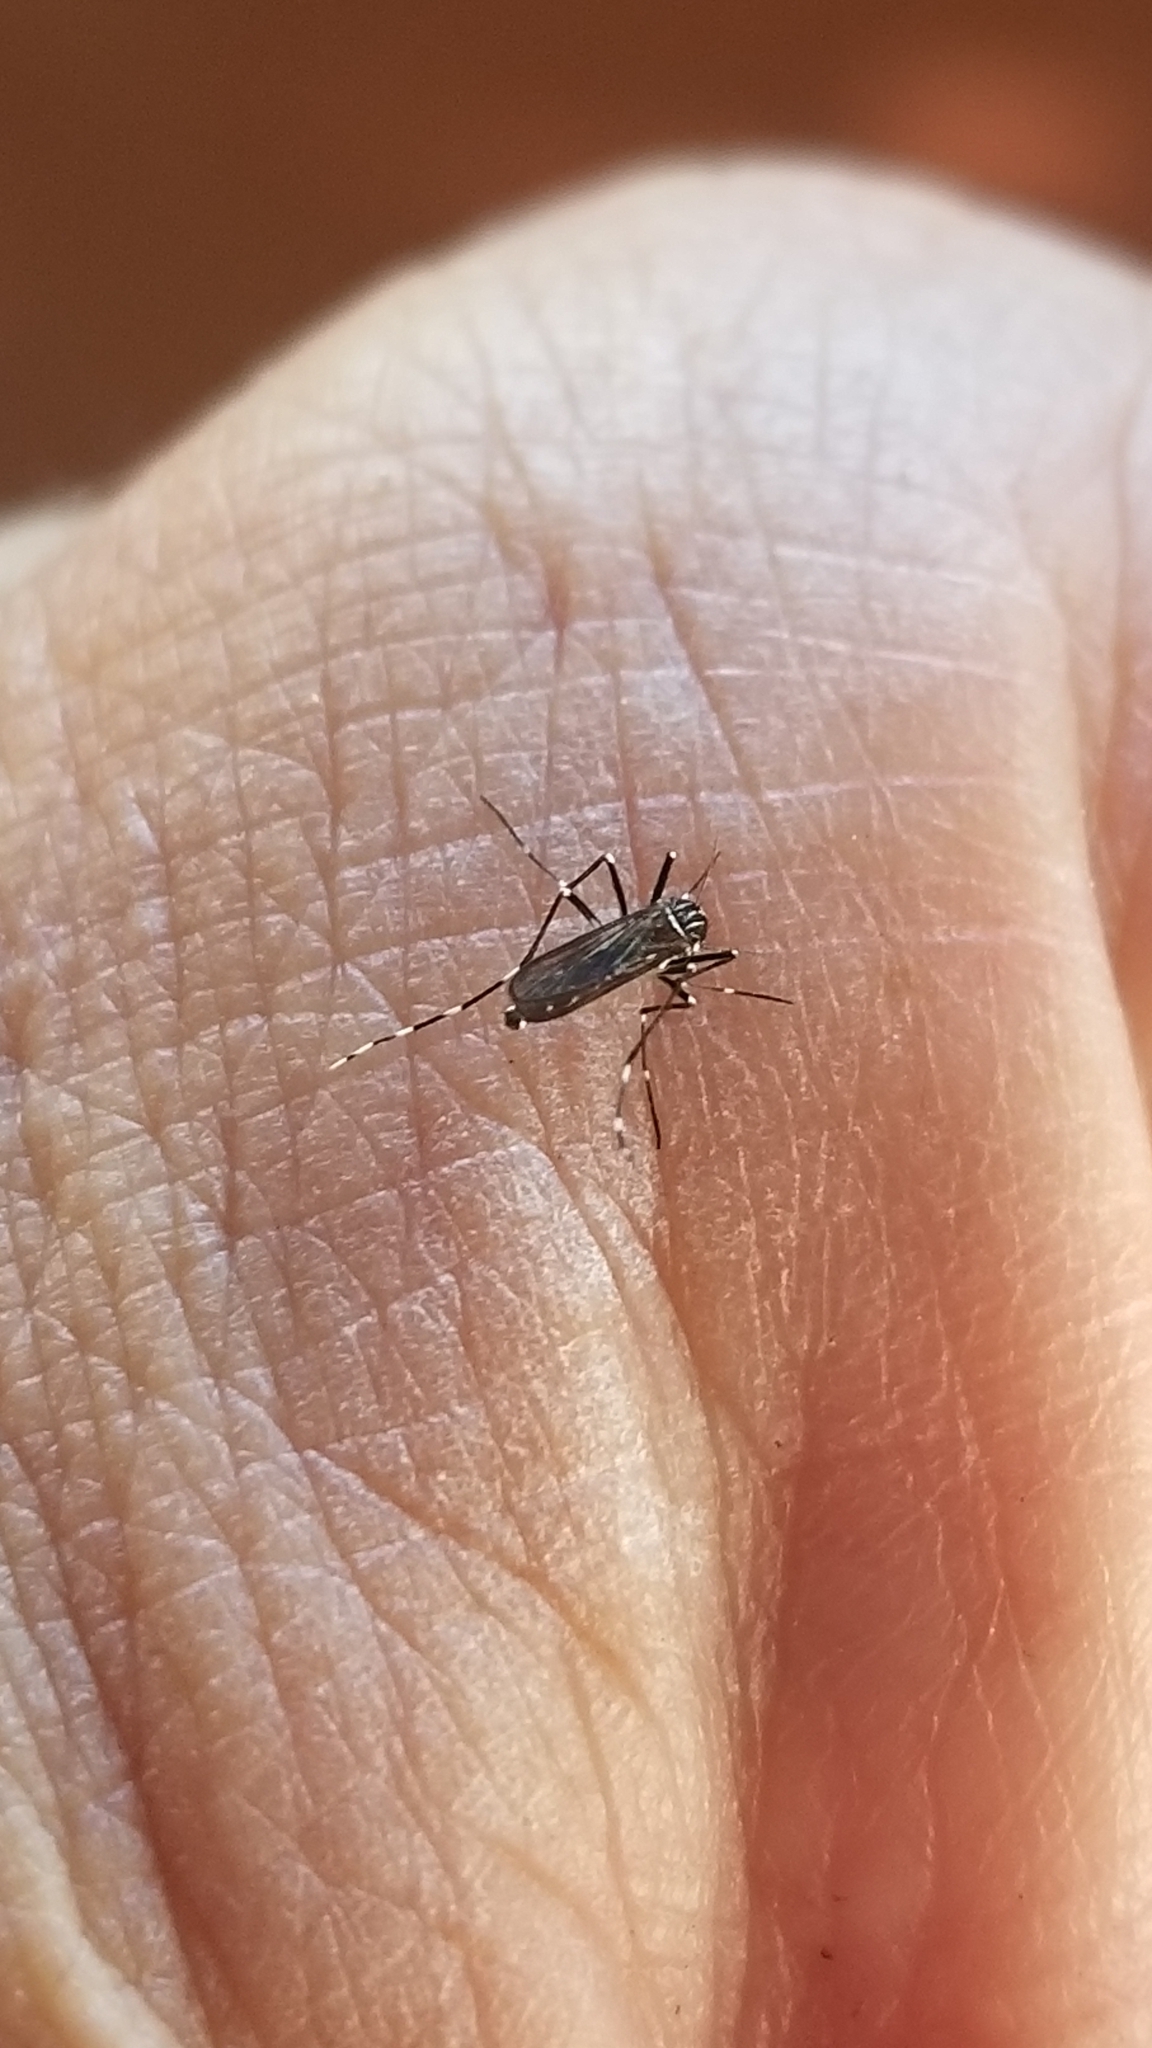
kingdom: Animalia
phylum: Arthropoda
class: Insecta
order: Diptera
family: Culicidae
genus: Aedes
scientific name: Aedes albopictus
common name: Tiger mosquito
